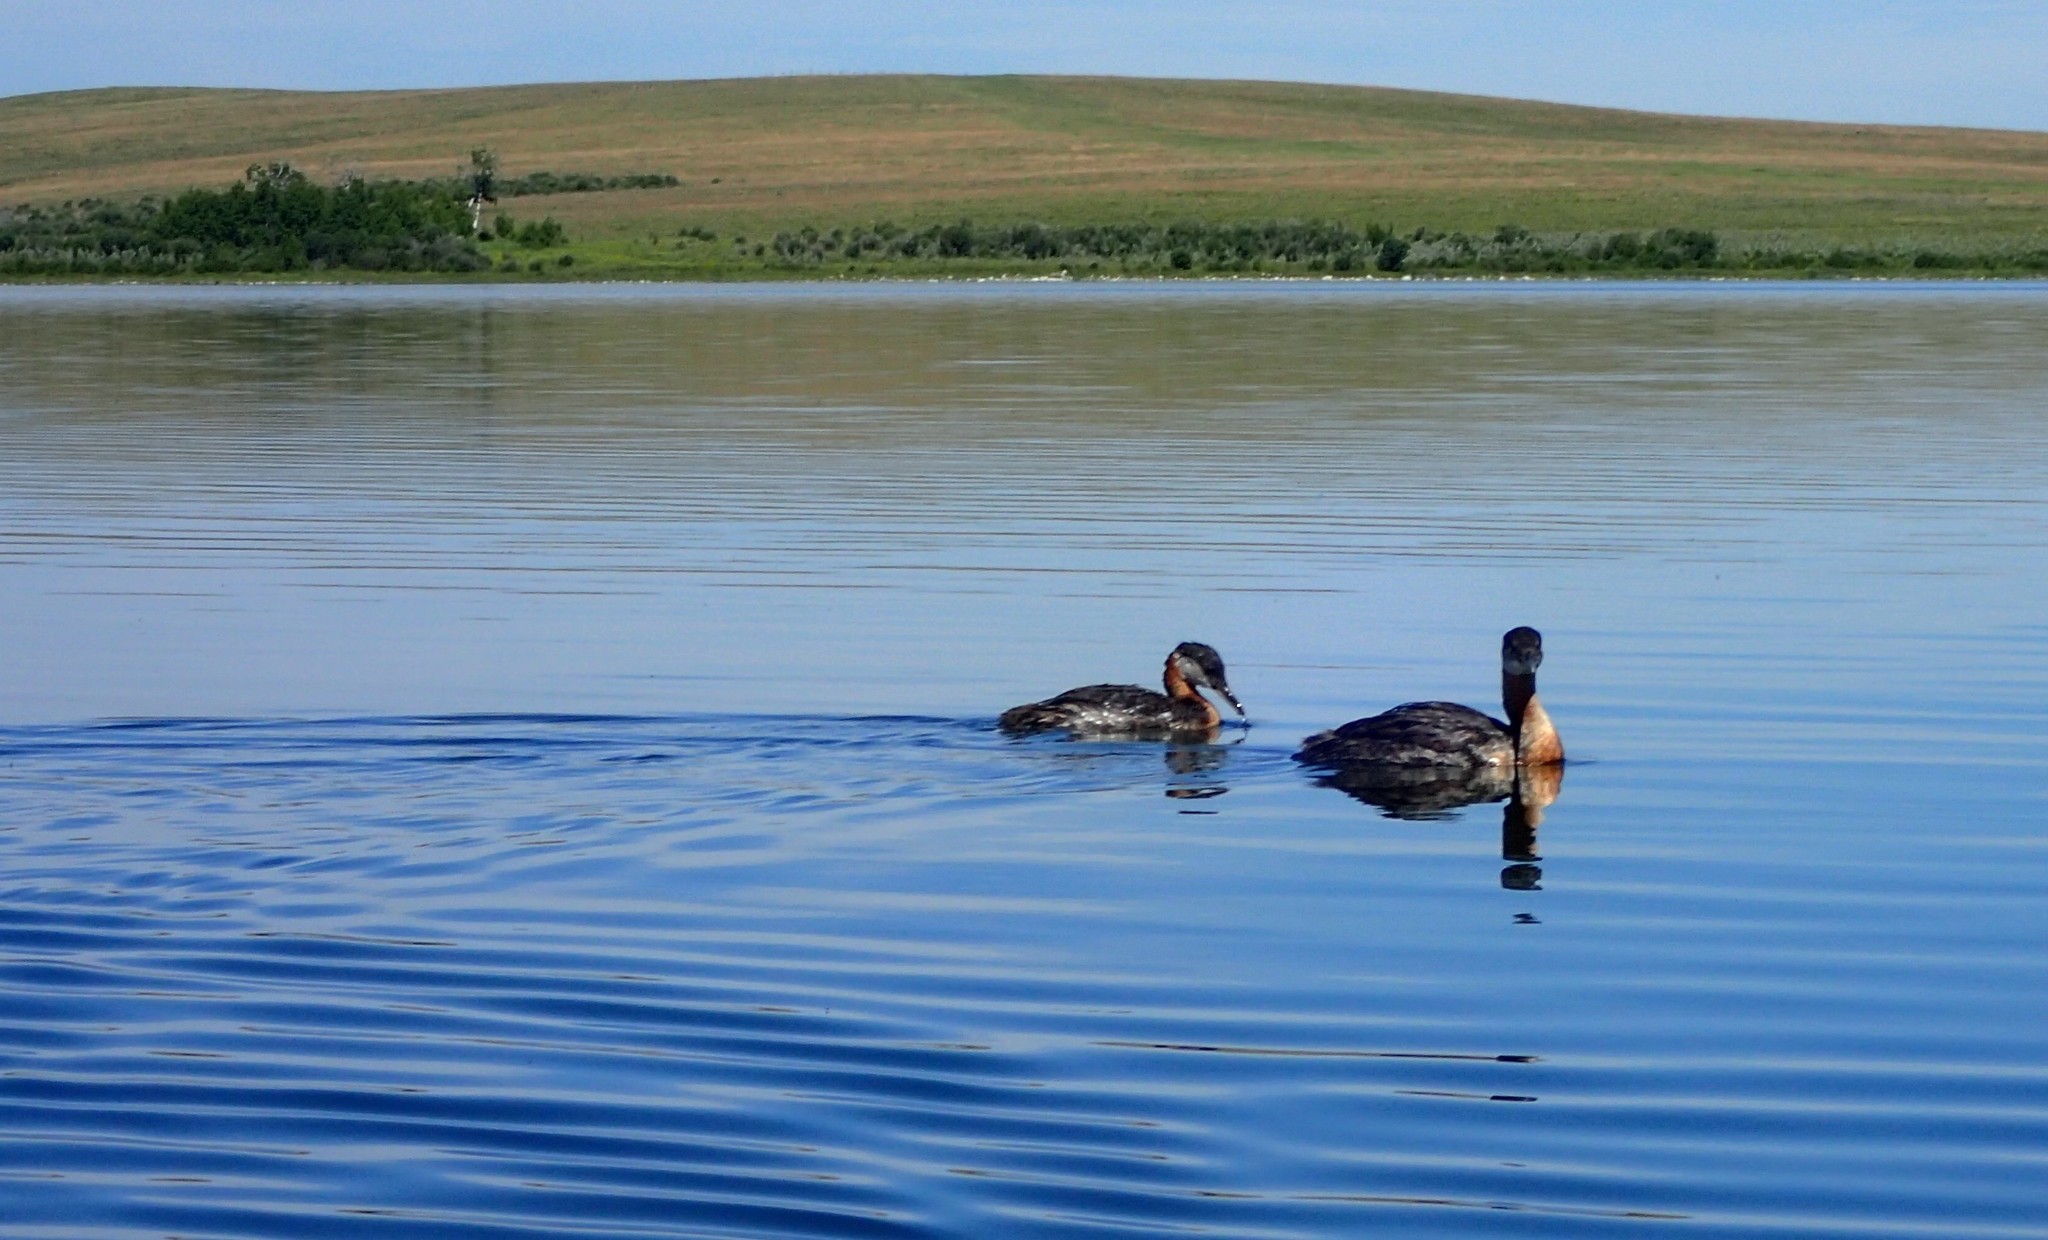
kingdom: Animalia
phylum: Chordata
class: Aves
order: Podicipediformes
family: Podicipedidae
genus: Podiceps
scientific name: Podiceps grisegena
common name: Red-necked grebe
